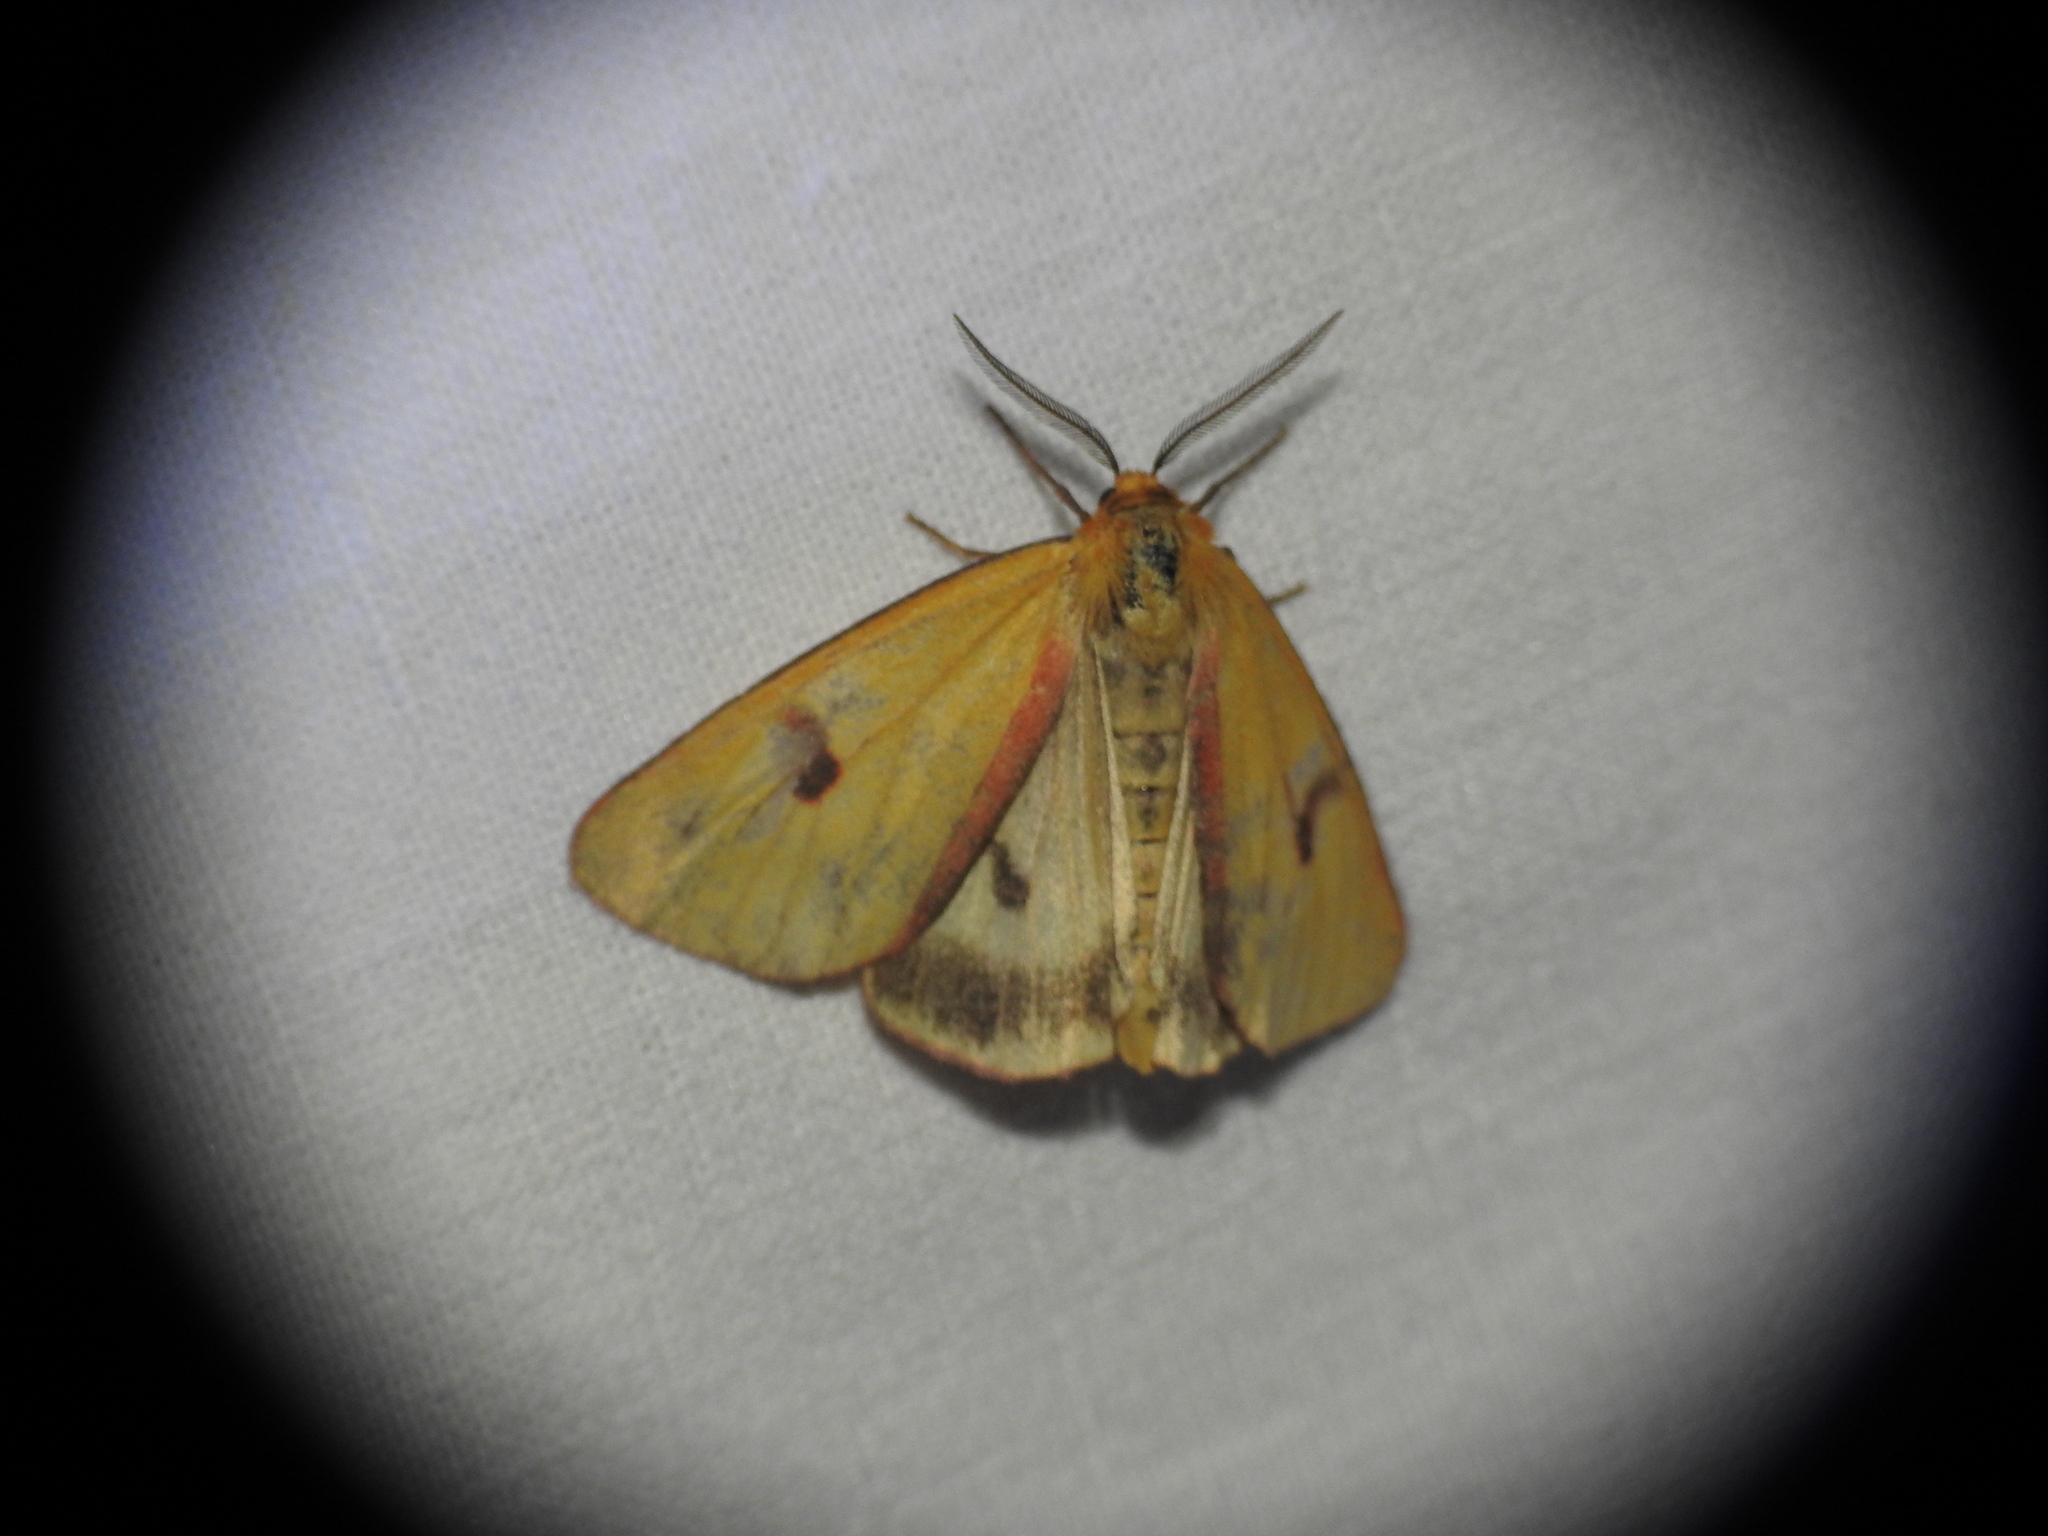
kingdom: Animalia
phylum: Arthropoda
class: Insecta
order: Lepidoptera
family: Erebidae
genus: Diacrisia
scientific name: Diacrisia sannio
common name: Clouded buff
